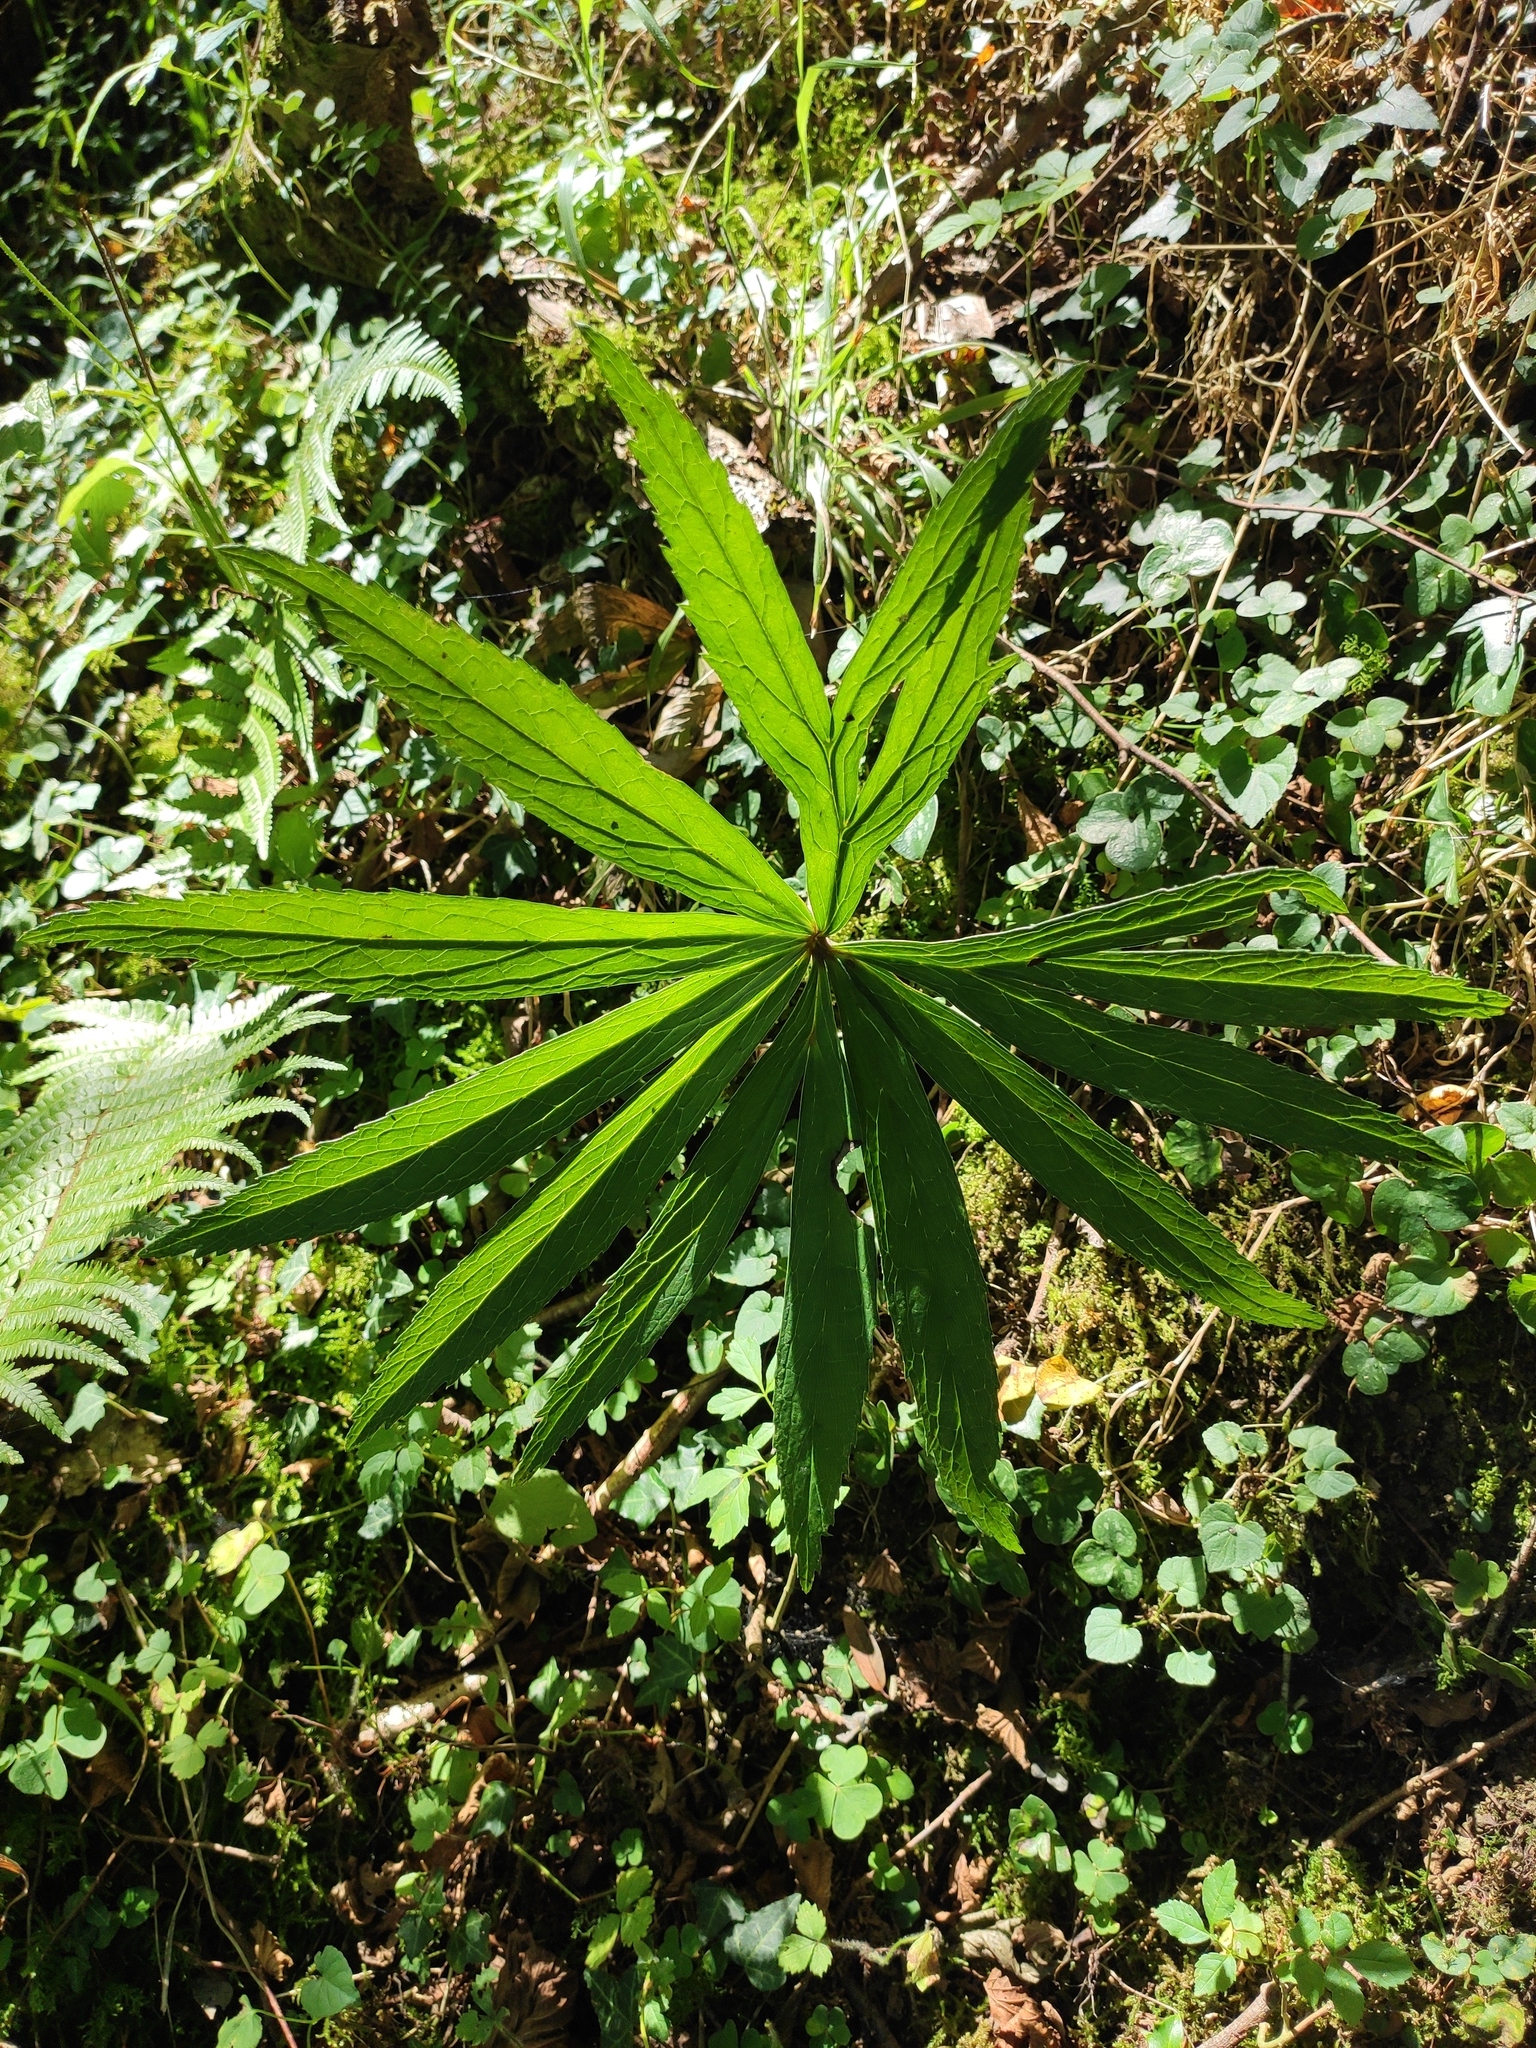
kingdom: Plantae
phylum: Tracheophyta
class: Magnoliopsida
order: Ranunculales
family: Ranunculaceae
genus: Helleborus
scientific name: Helleborus viridis
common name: Green hellebore
